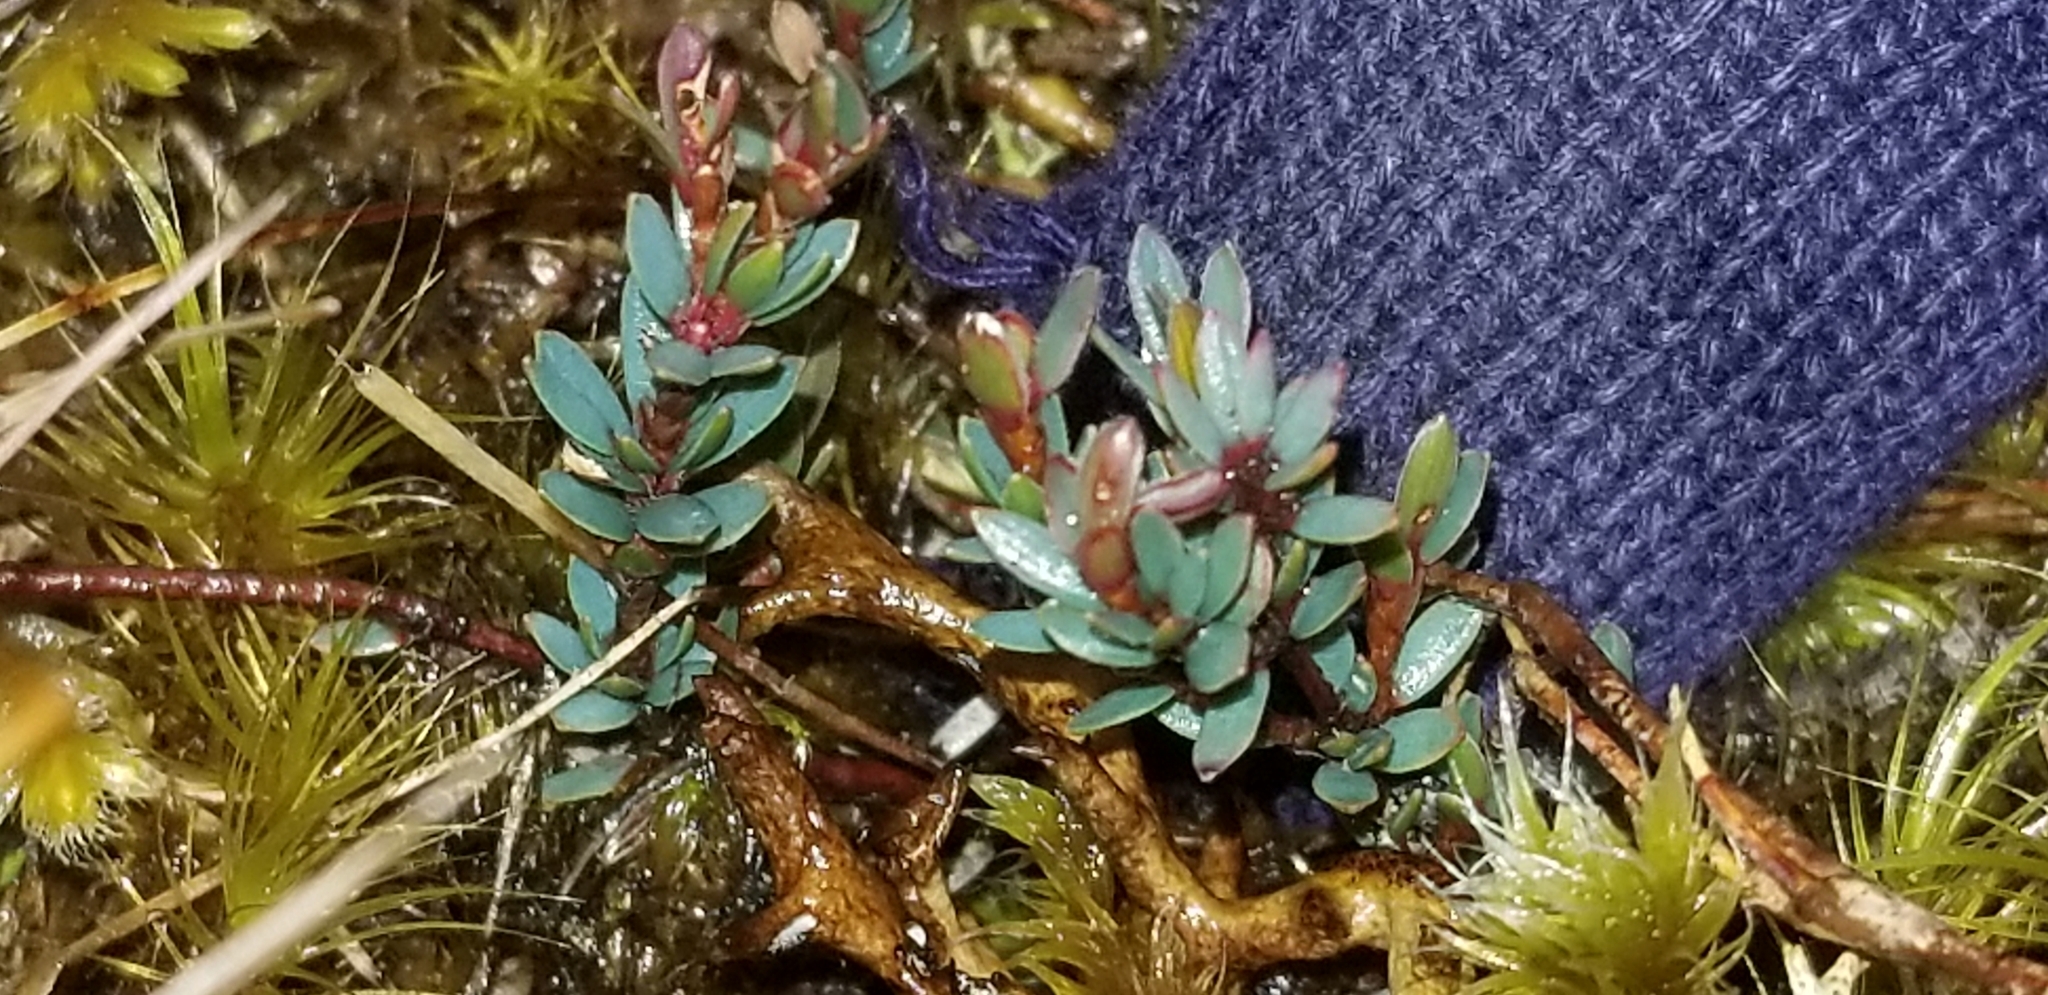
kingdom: Plantae
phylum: Tracheophyta
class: Magnoliopsida
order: Ericales
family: Ericaceae
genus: Pentachondra
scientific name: Pentachondra pumila
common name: Carpet-heath
